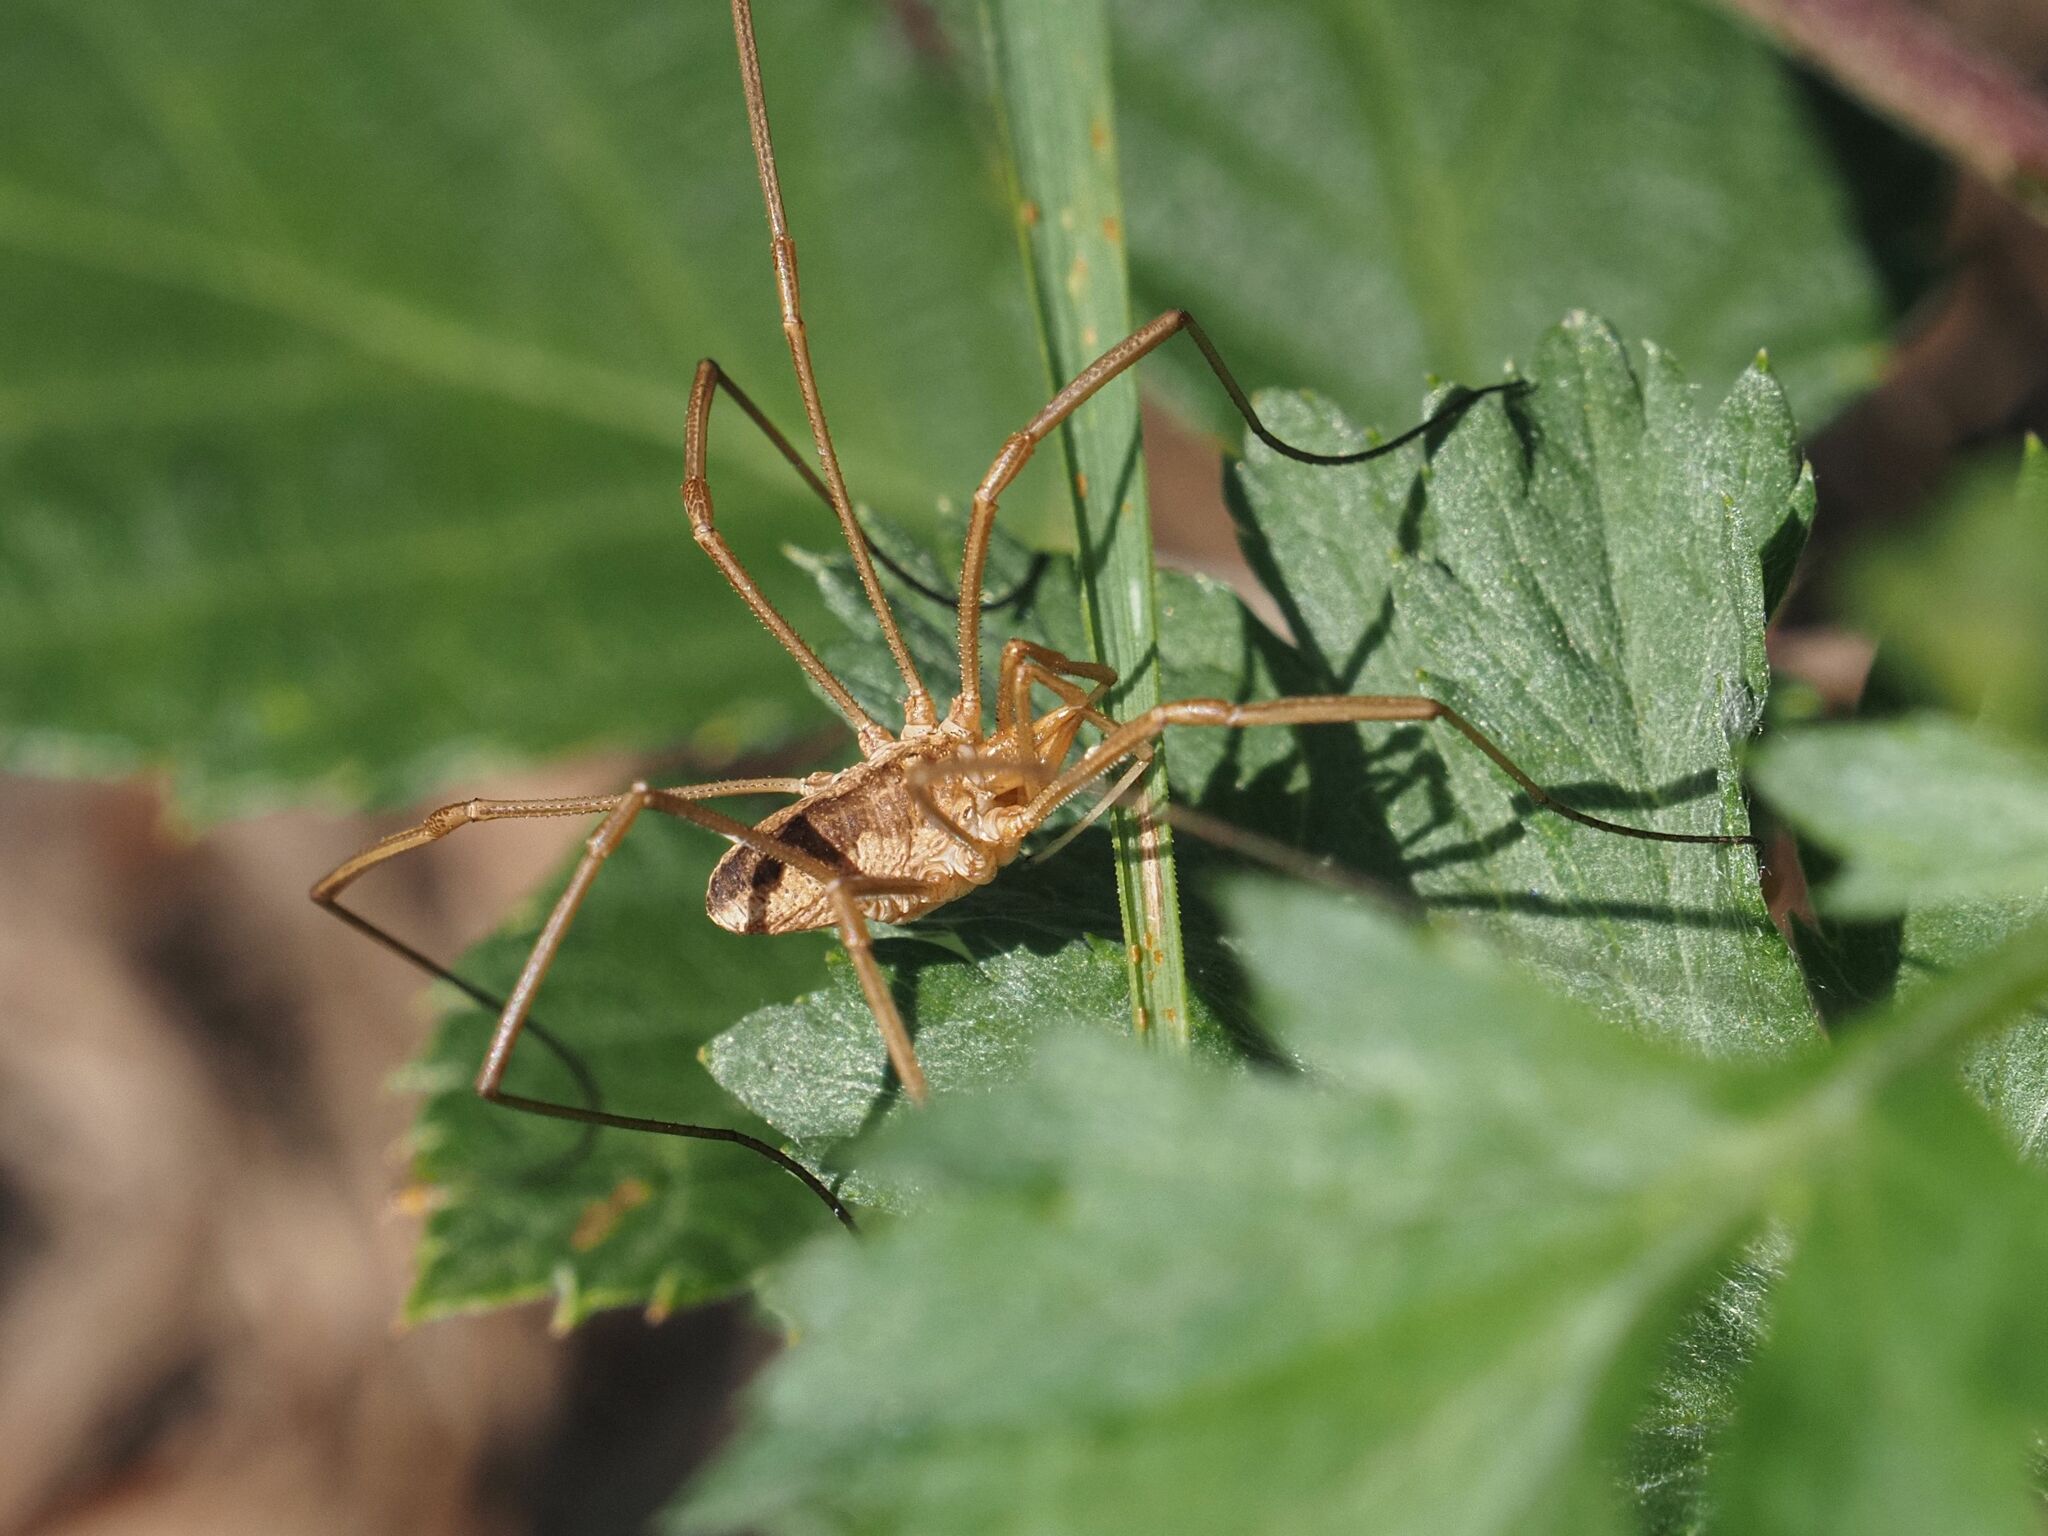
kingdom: Animalia
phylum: Arthropoda
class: Arachnida
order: Opiliones
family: Phalangiidae
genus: Phalangium
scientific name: Phalangium opilio
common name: Daddy longleg
